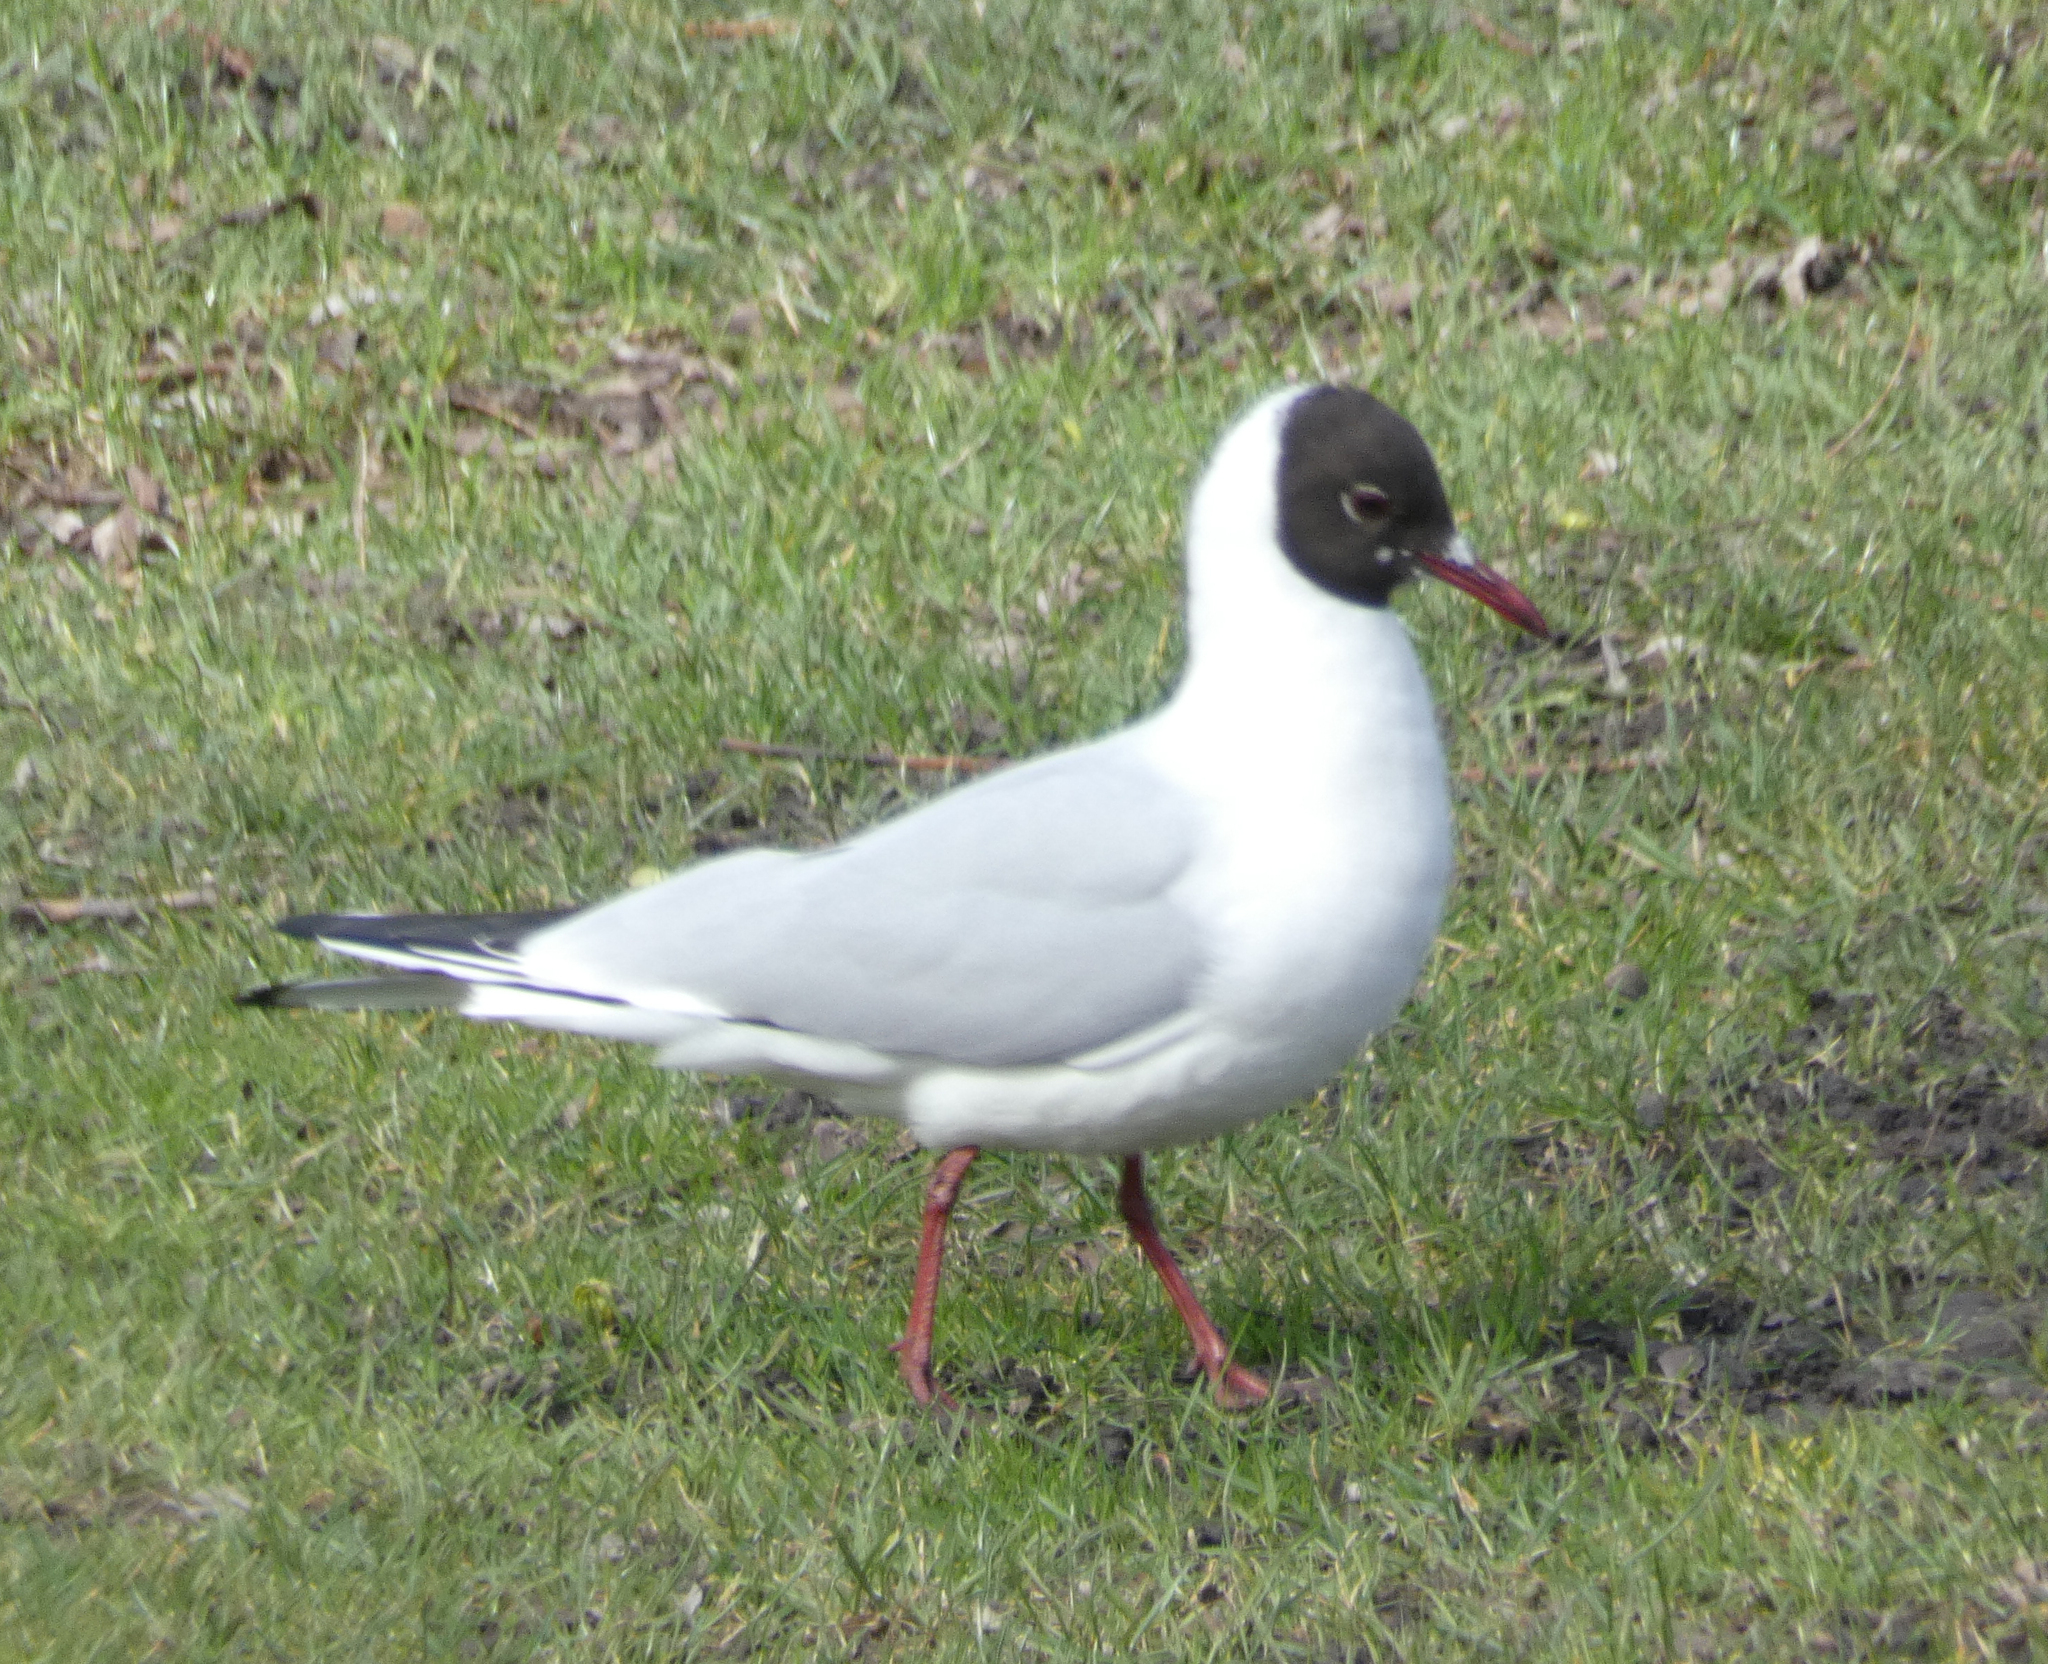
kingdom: Animalia
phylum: Chordata
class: Aves
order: Charadriiformes
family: Laridae
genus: Chroicocephalus
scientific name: Chroicocephalus ridibundus
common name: Black-headed gull
